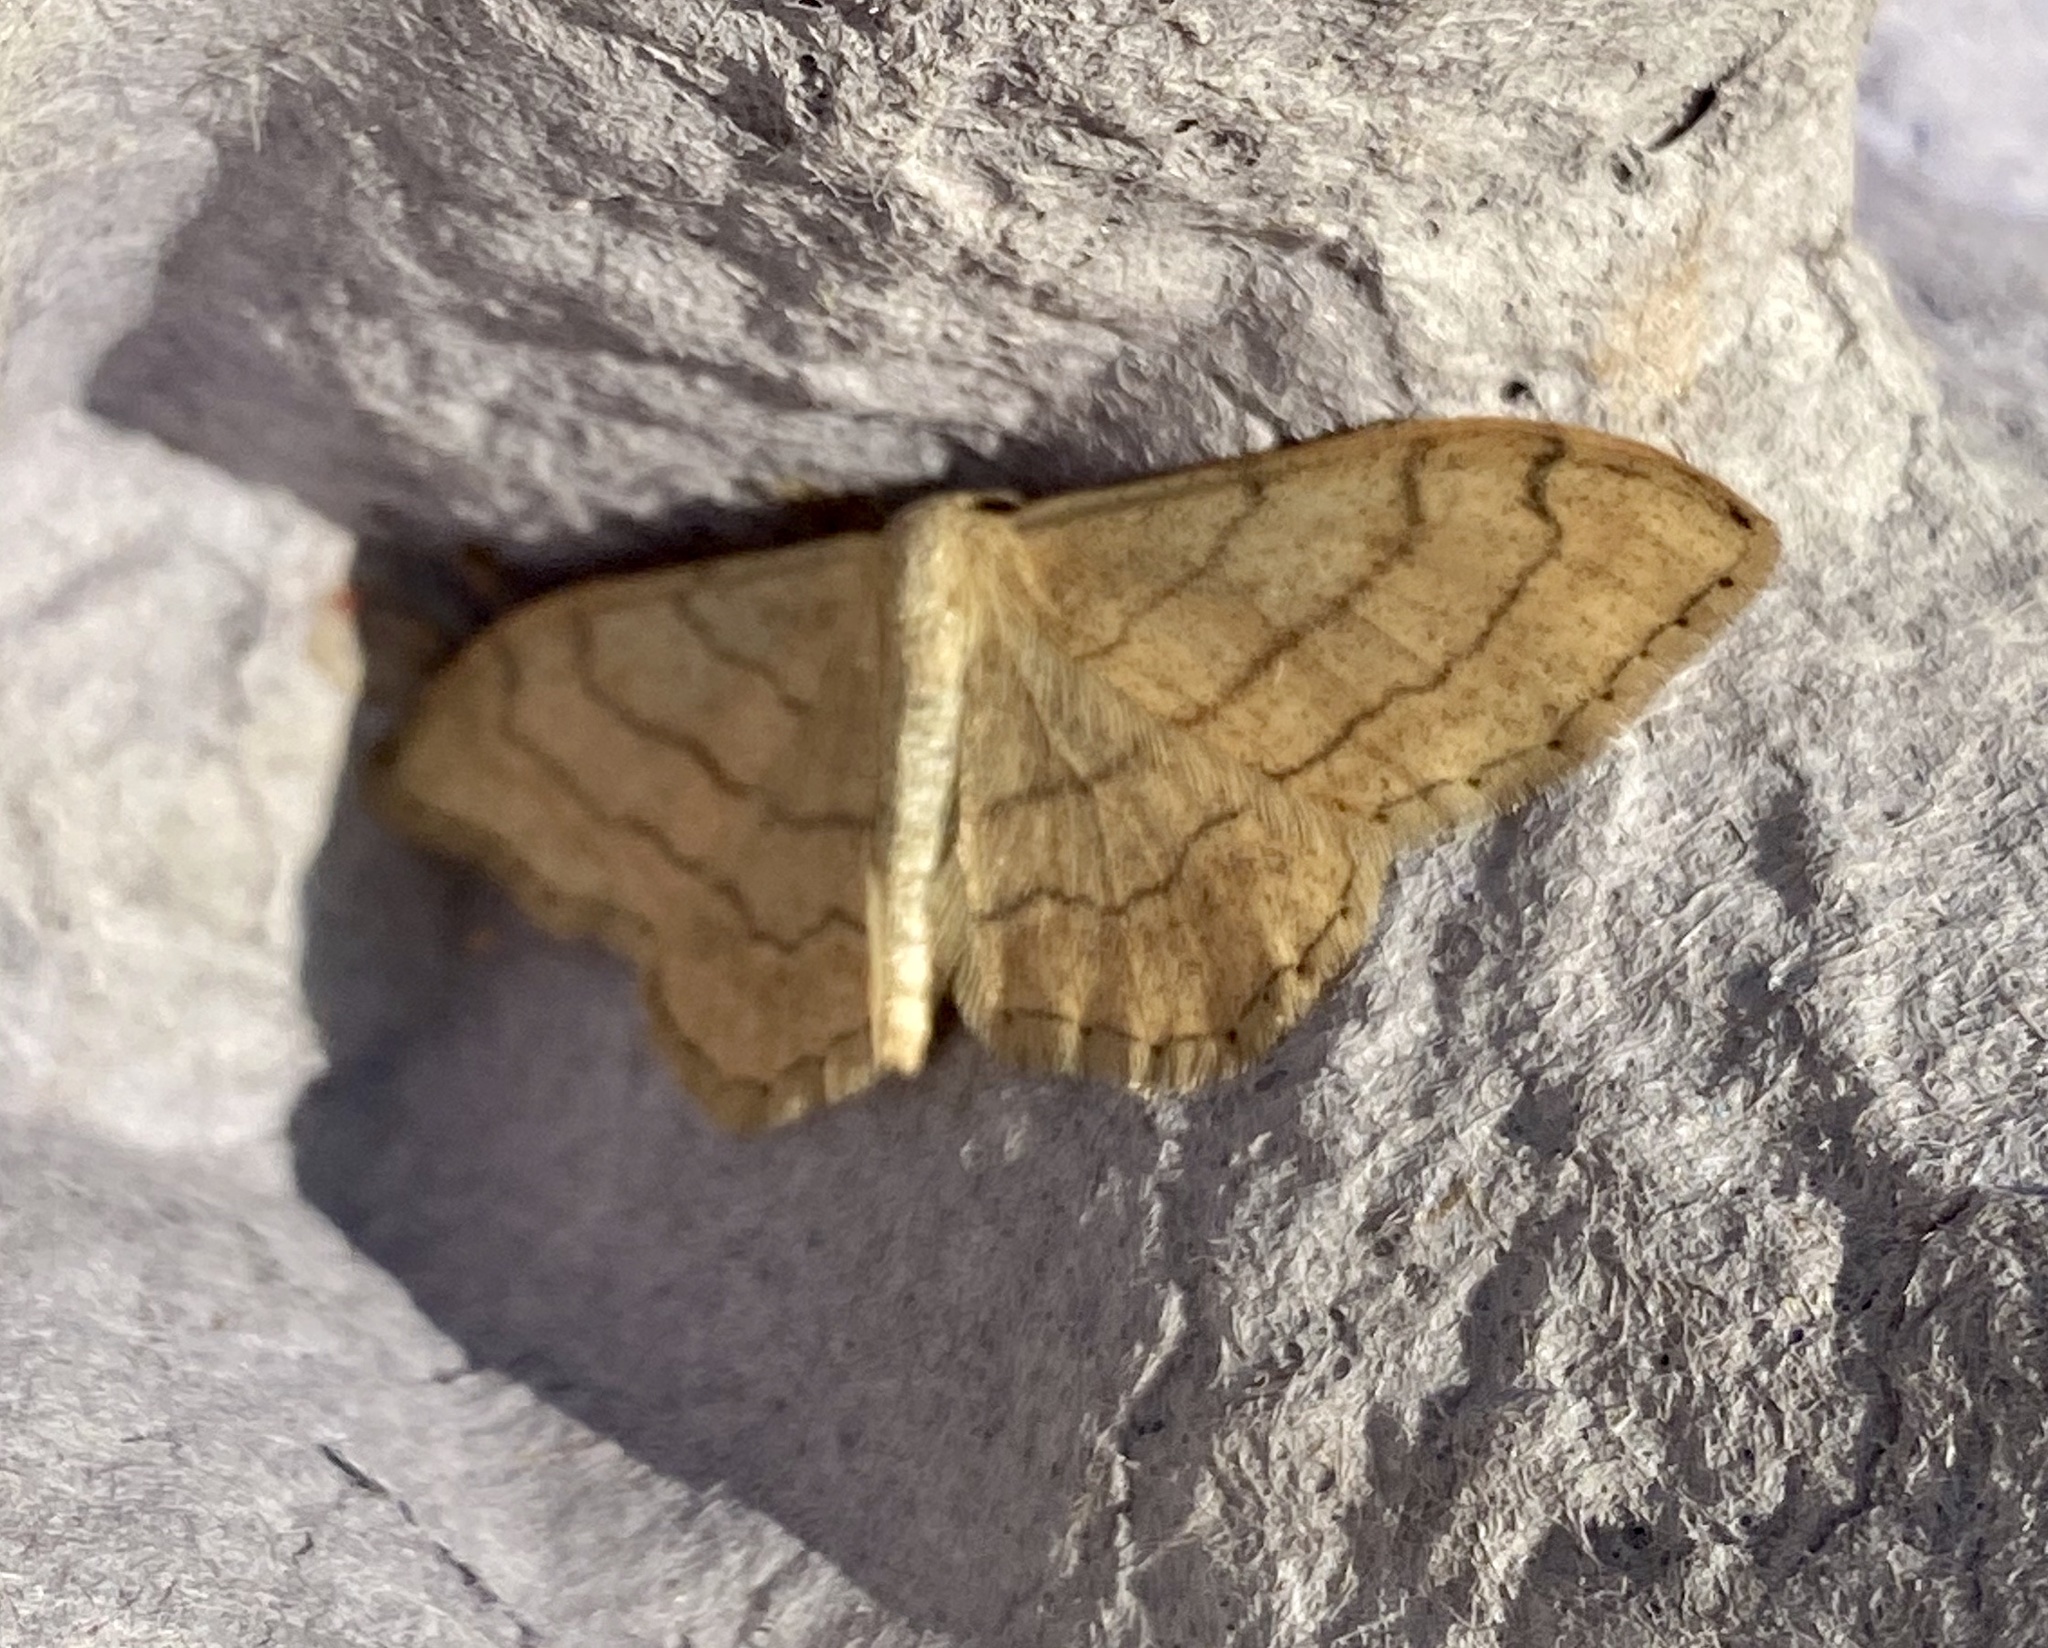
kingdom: Animalia
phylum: Arthropoda
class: Insecta
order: Lepidoptera
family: Geometridae
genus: Idaea
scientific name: Idaea aversata
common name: Riband wave
